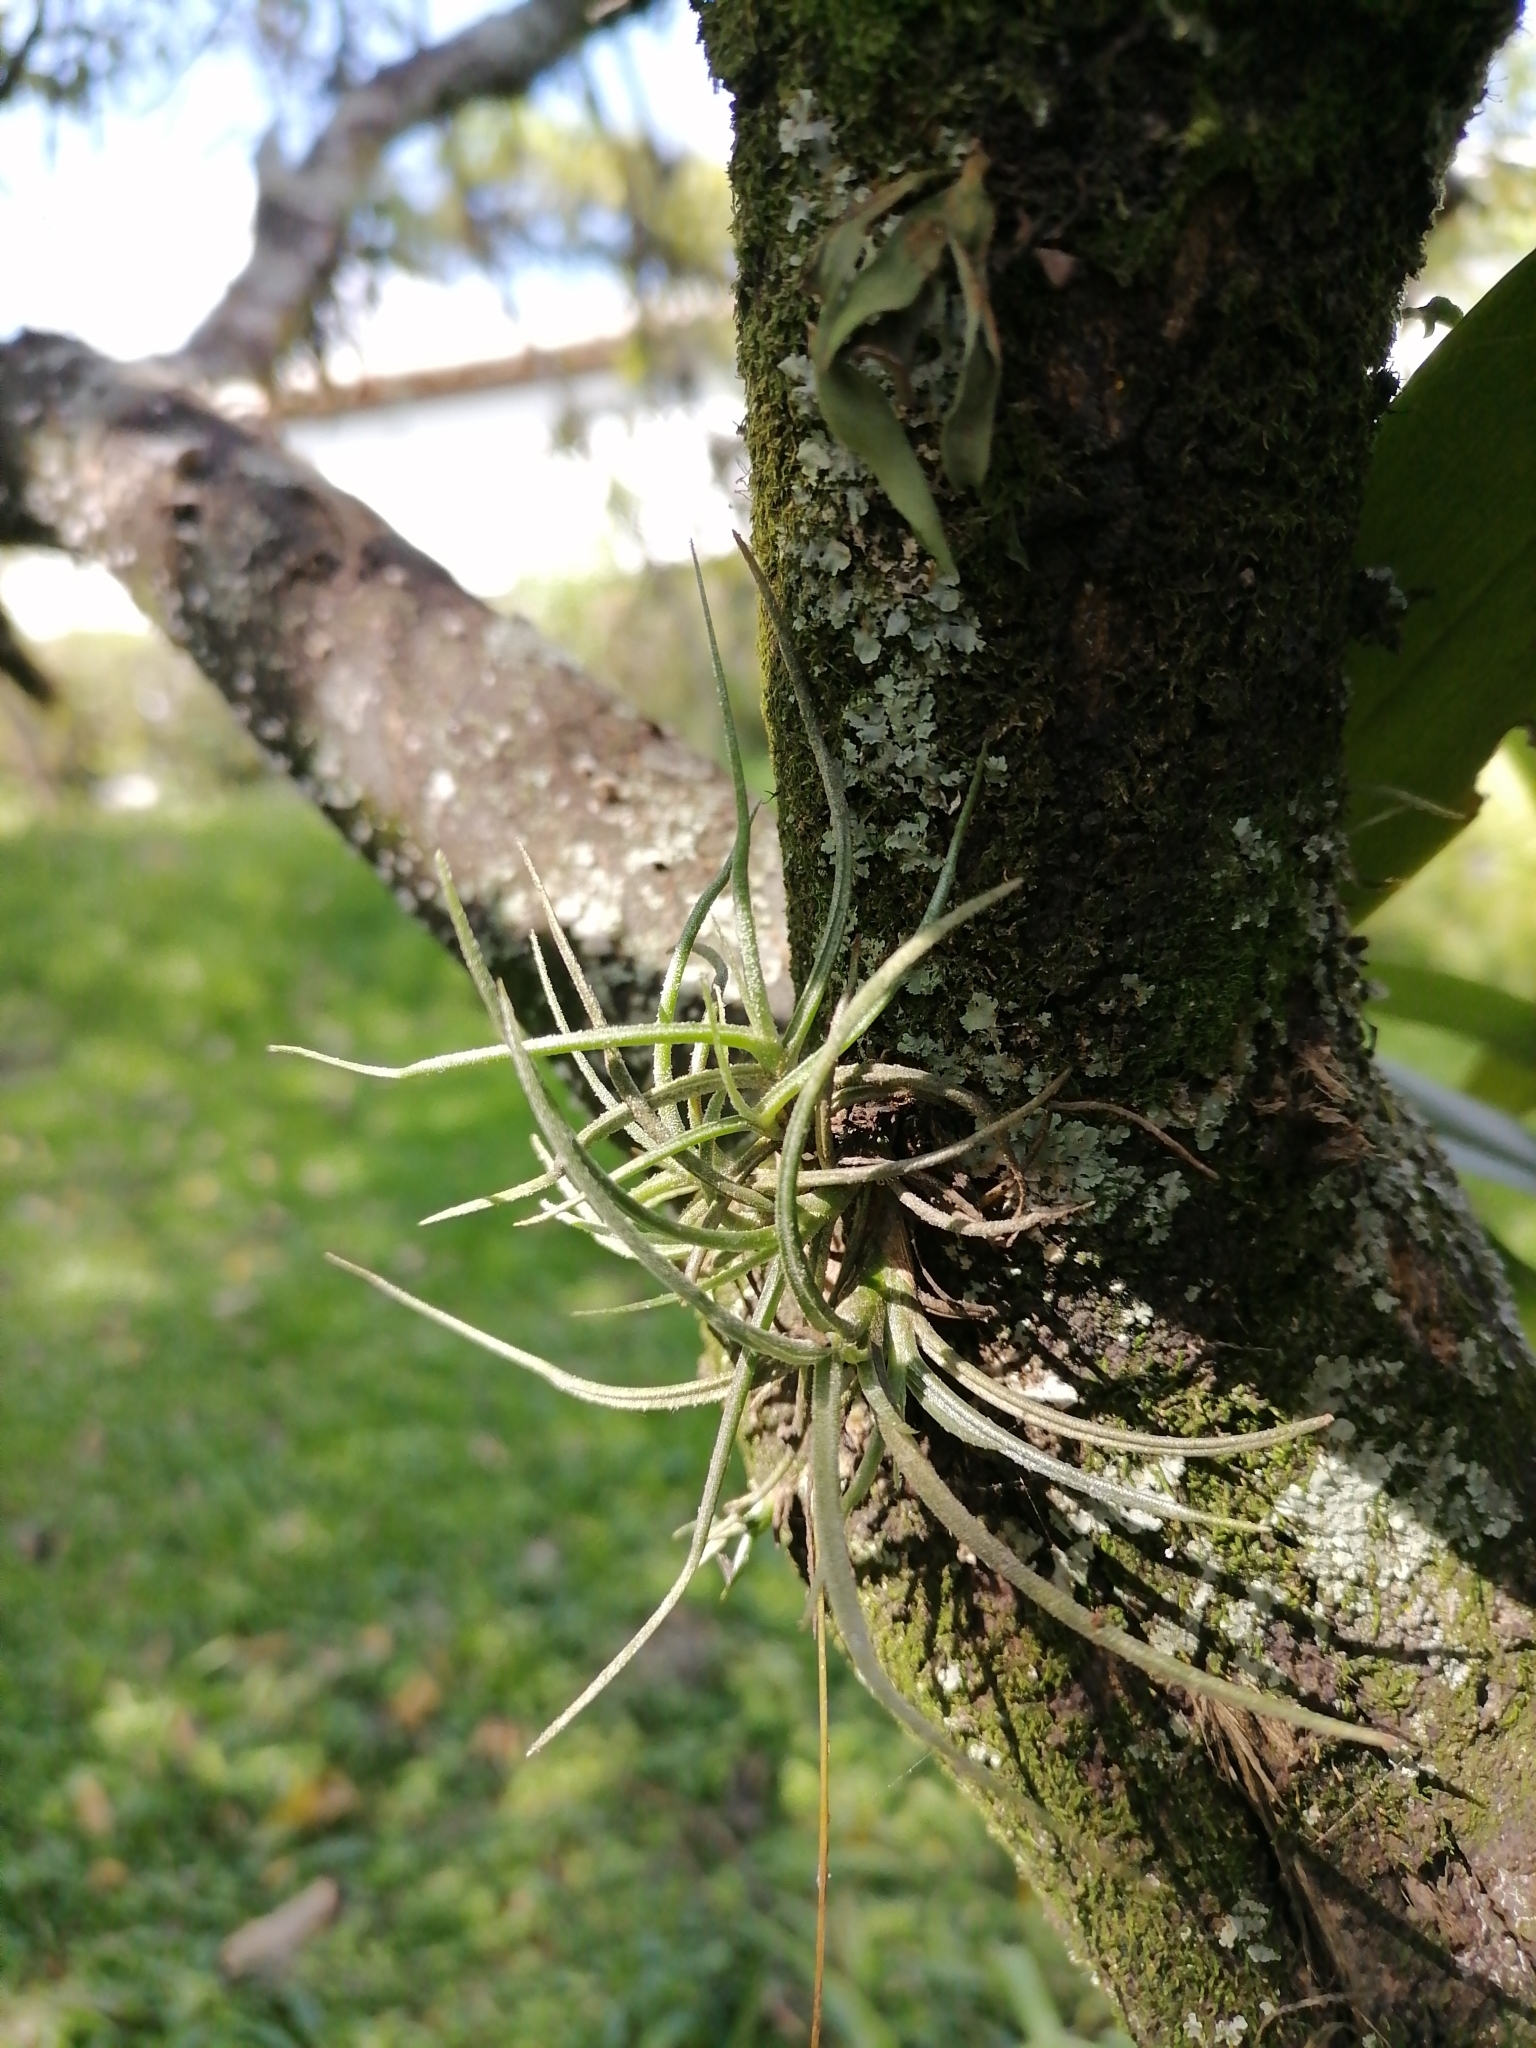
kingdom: Plantae
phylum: Tracheophyta
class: Liliopsida
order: Poales
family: Bromeliaceae
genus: Tillandsia
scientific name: Tillandsia recurvata
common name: Small ballmoss
